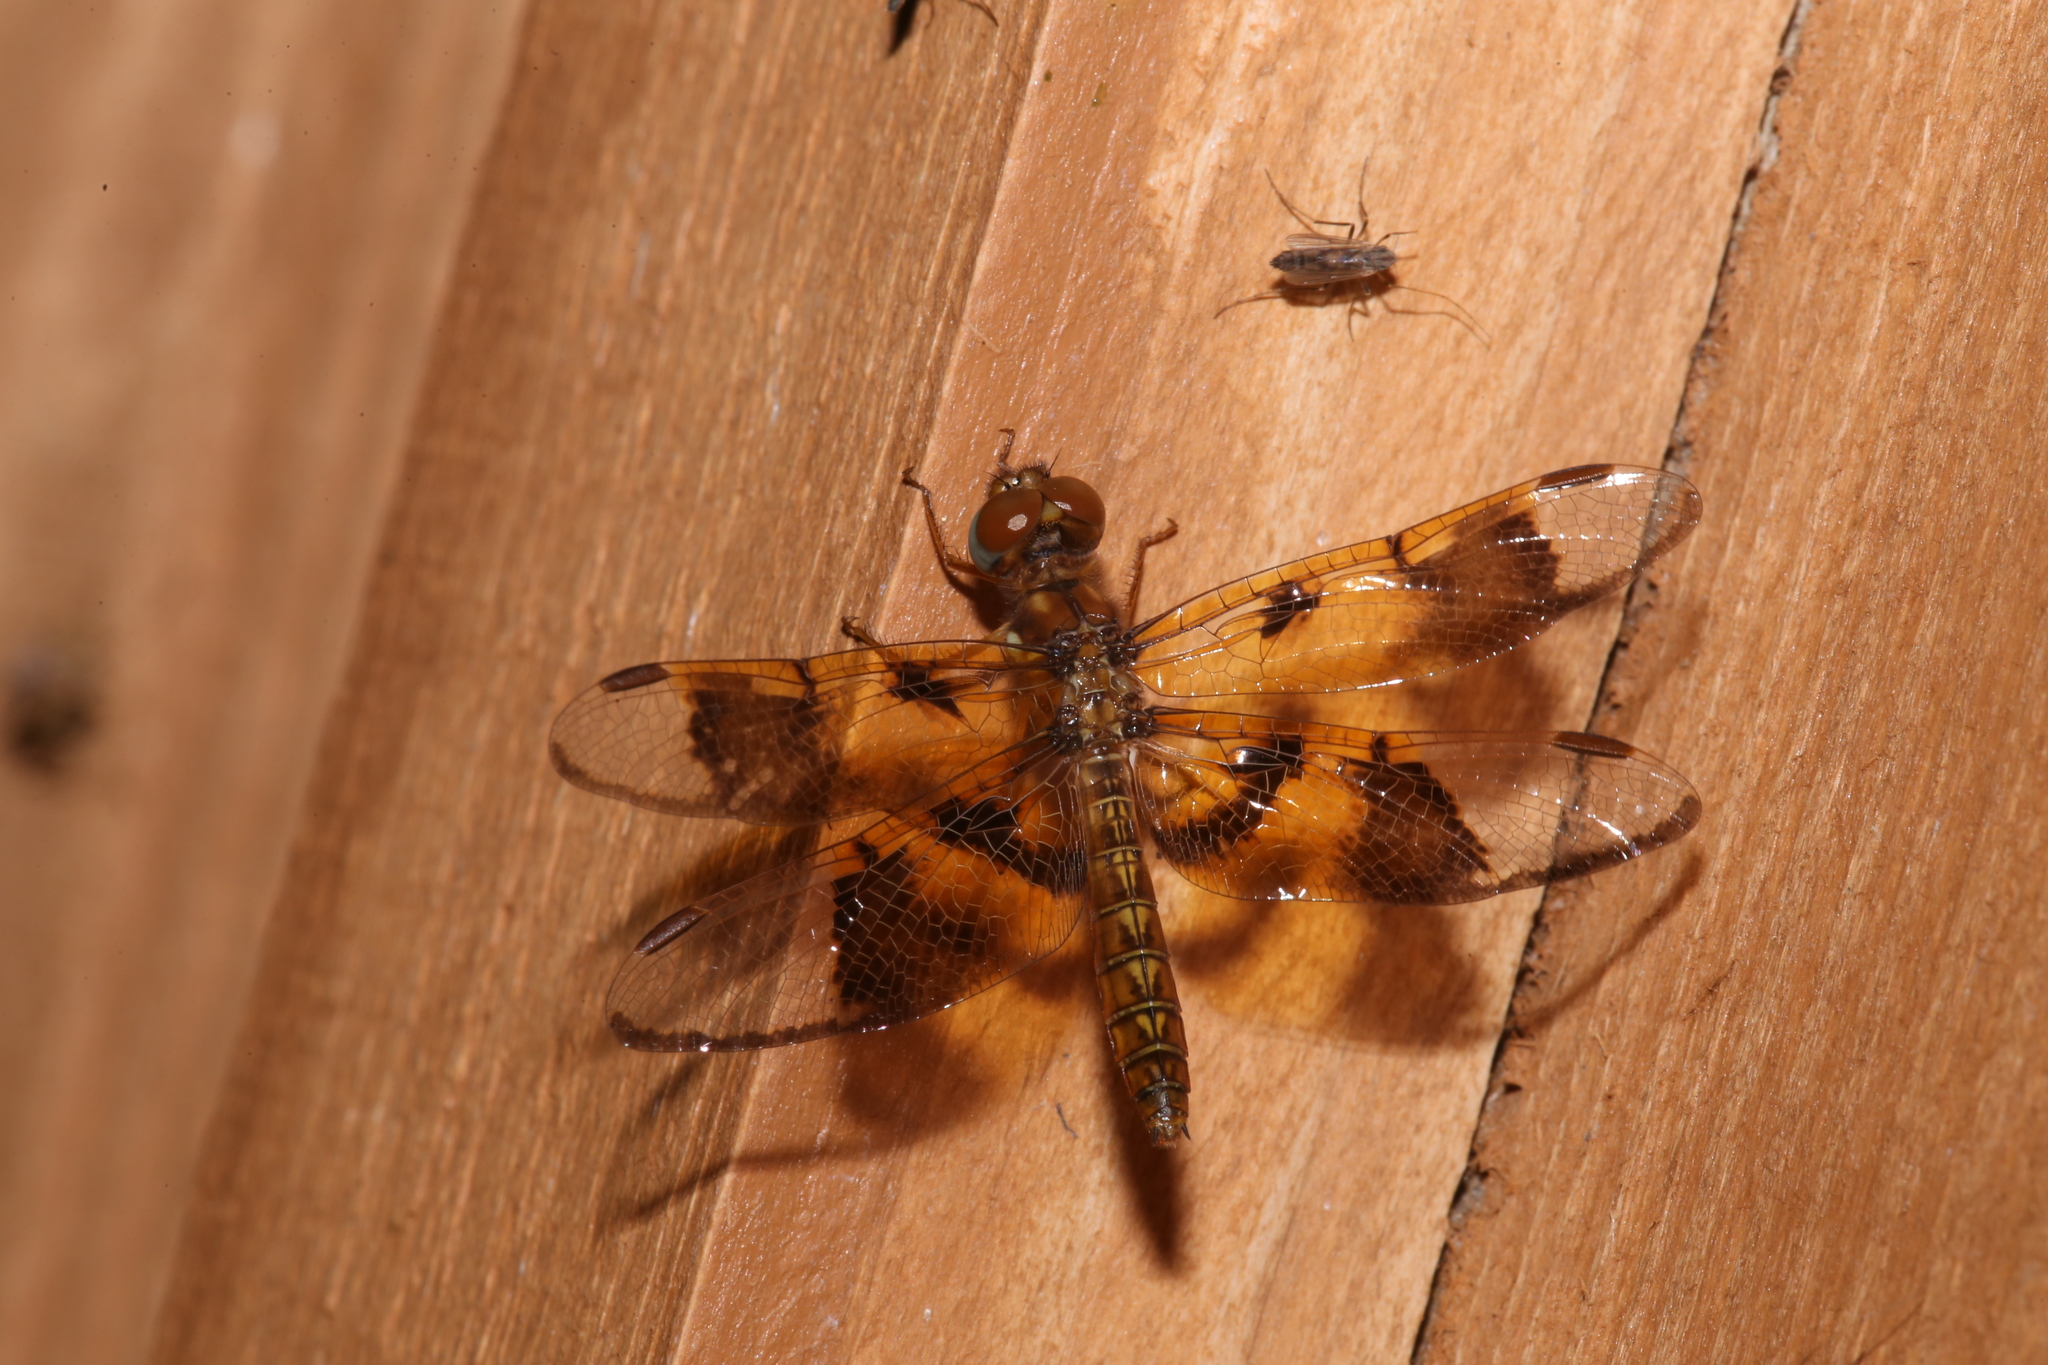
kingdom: Animalia
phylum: Arthropoda
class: Insecta
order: Odonata
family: Libellulidae
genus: Perithemis
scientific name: Perithemis tenera
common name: Eastern amberwing
